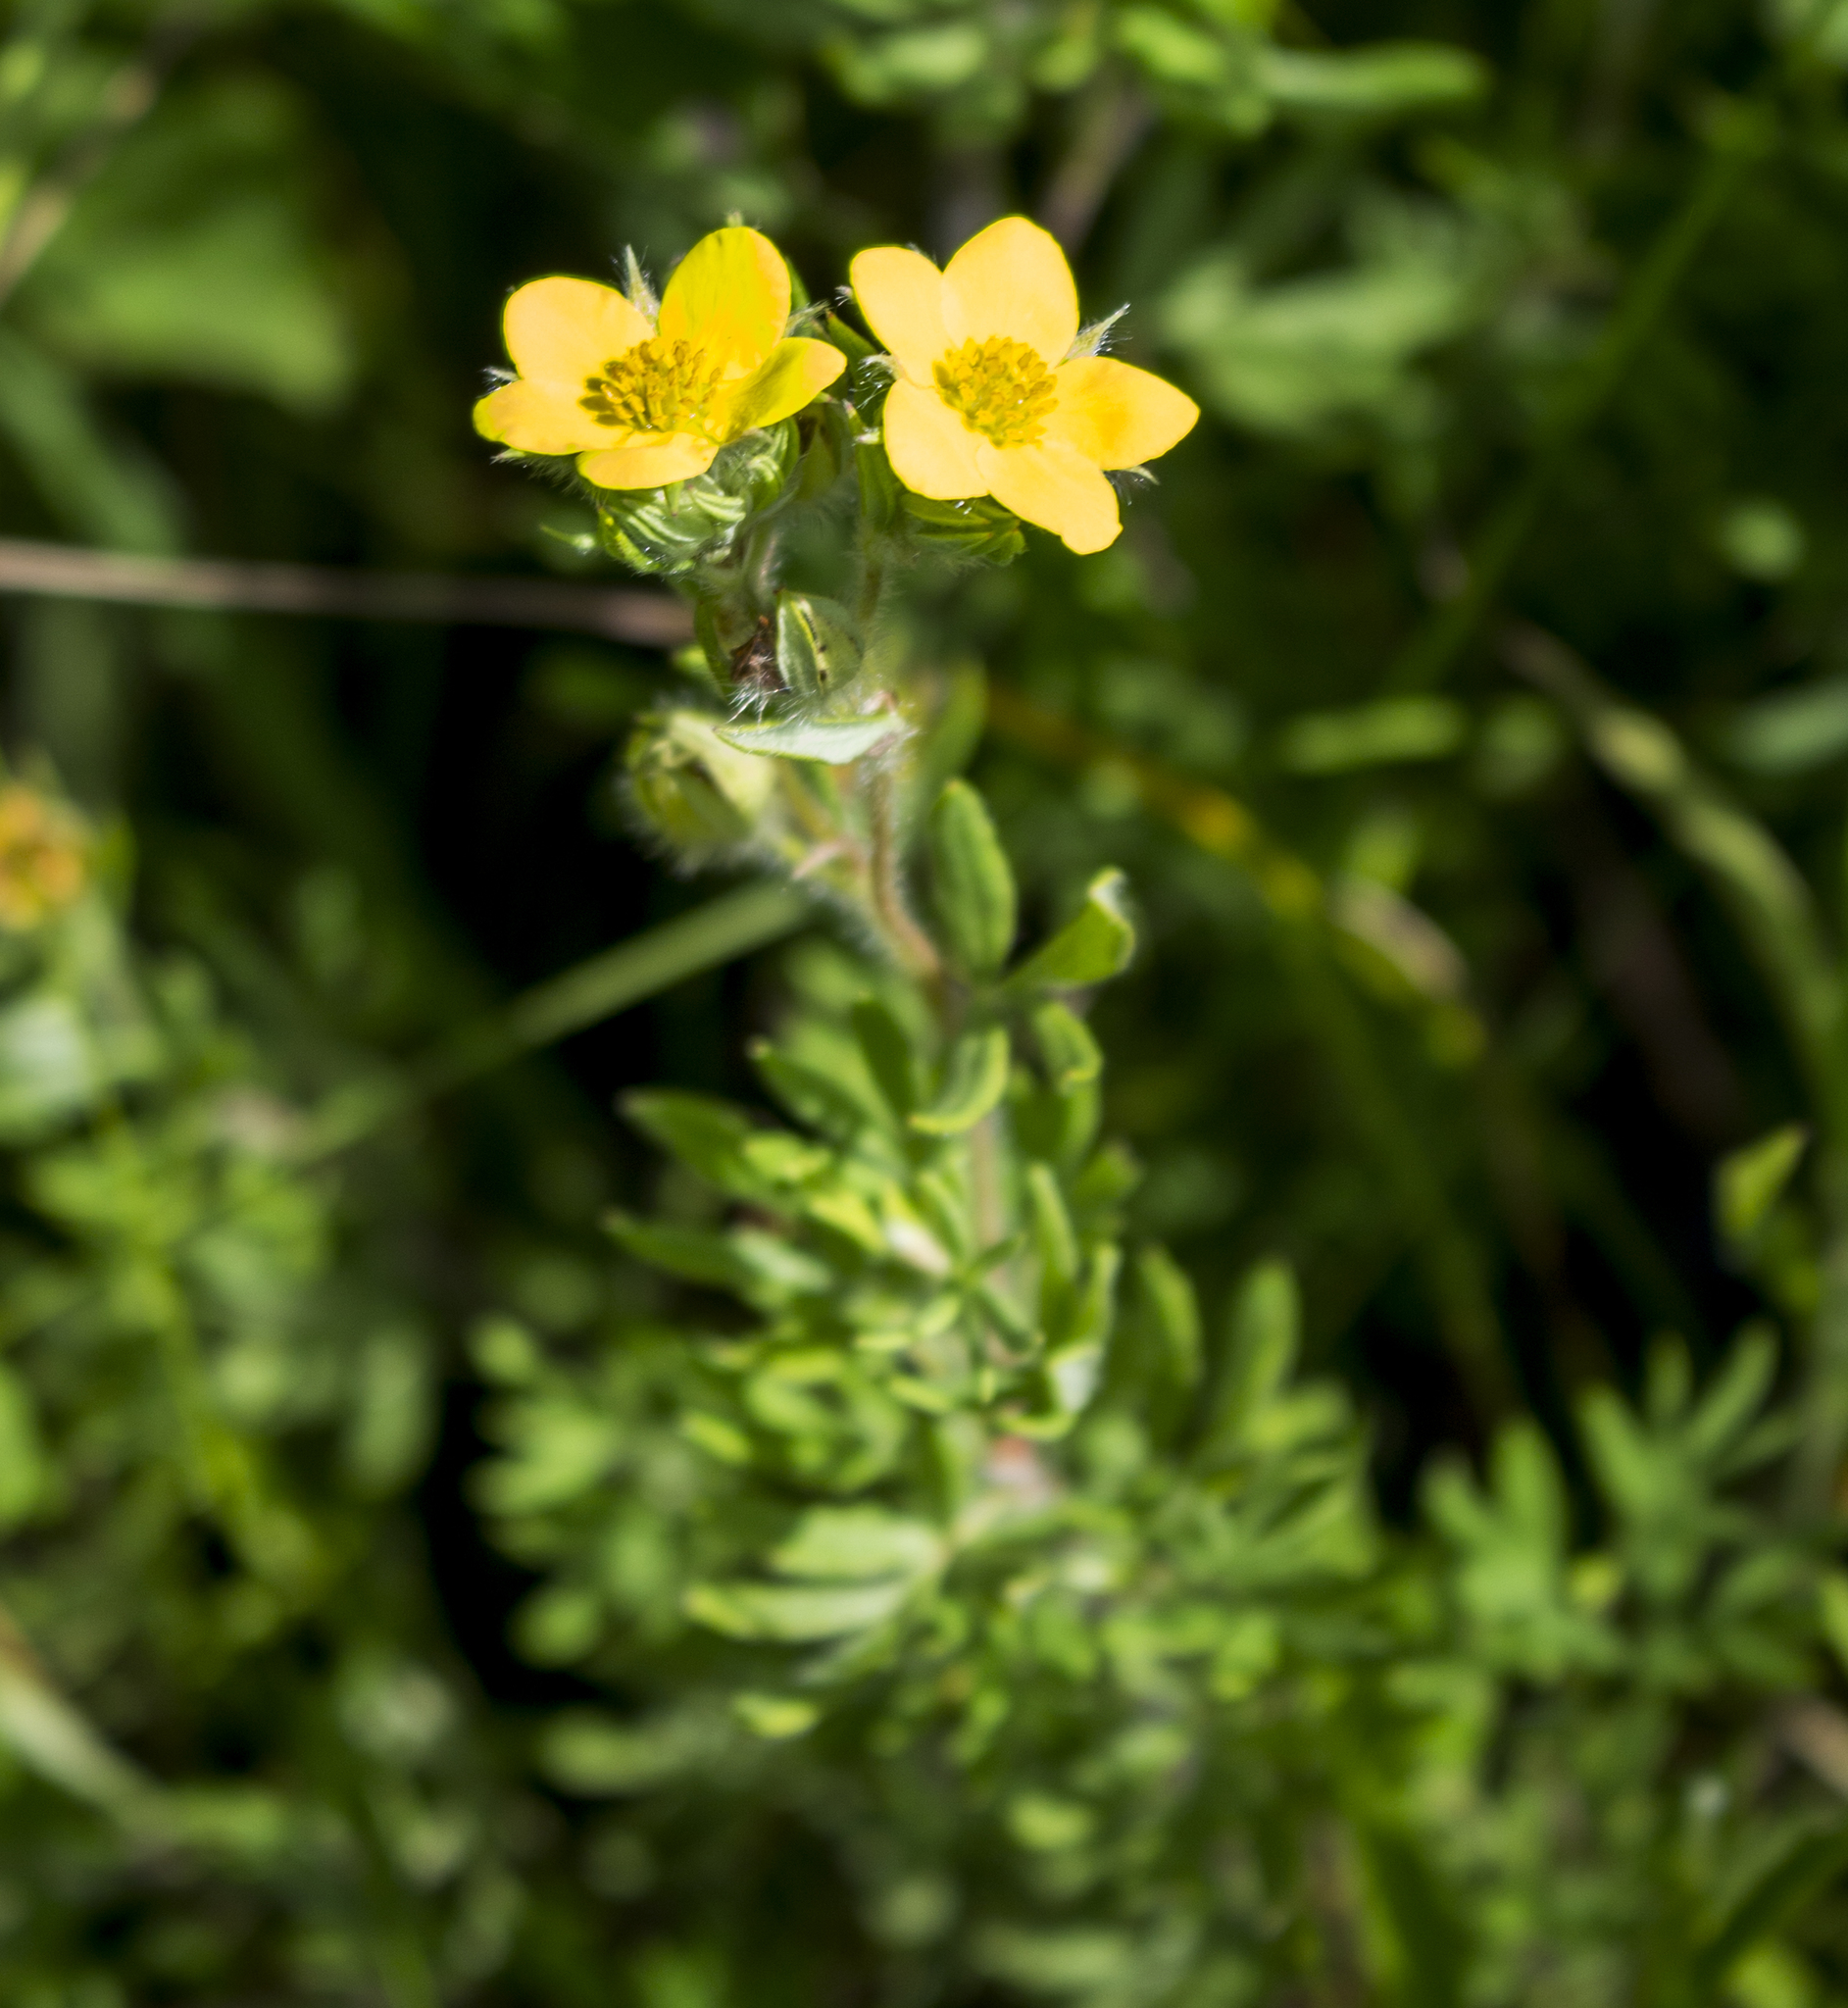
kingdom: Plantae
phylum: Tracheophyta
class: Magnoliopsida
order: Rosales
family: Rosaceae
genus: Dasiphora
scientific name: Dasiphora fruticosa
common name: Shrubby cinquefoil
